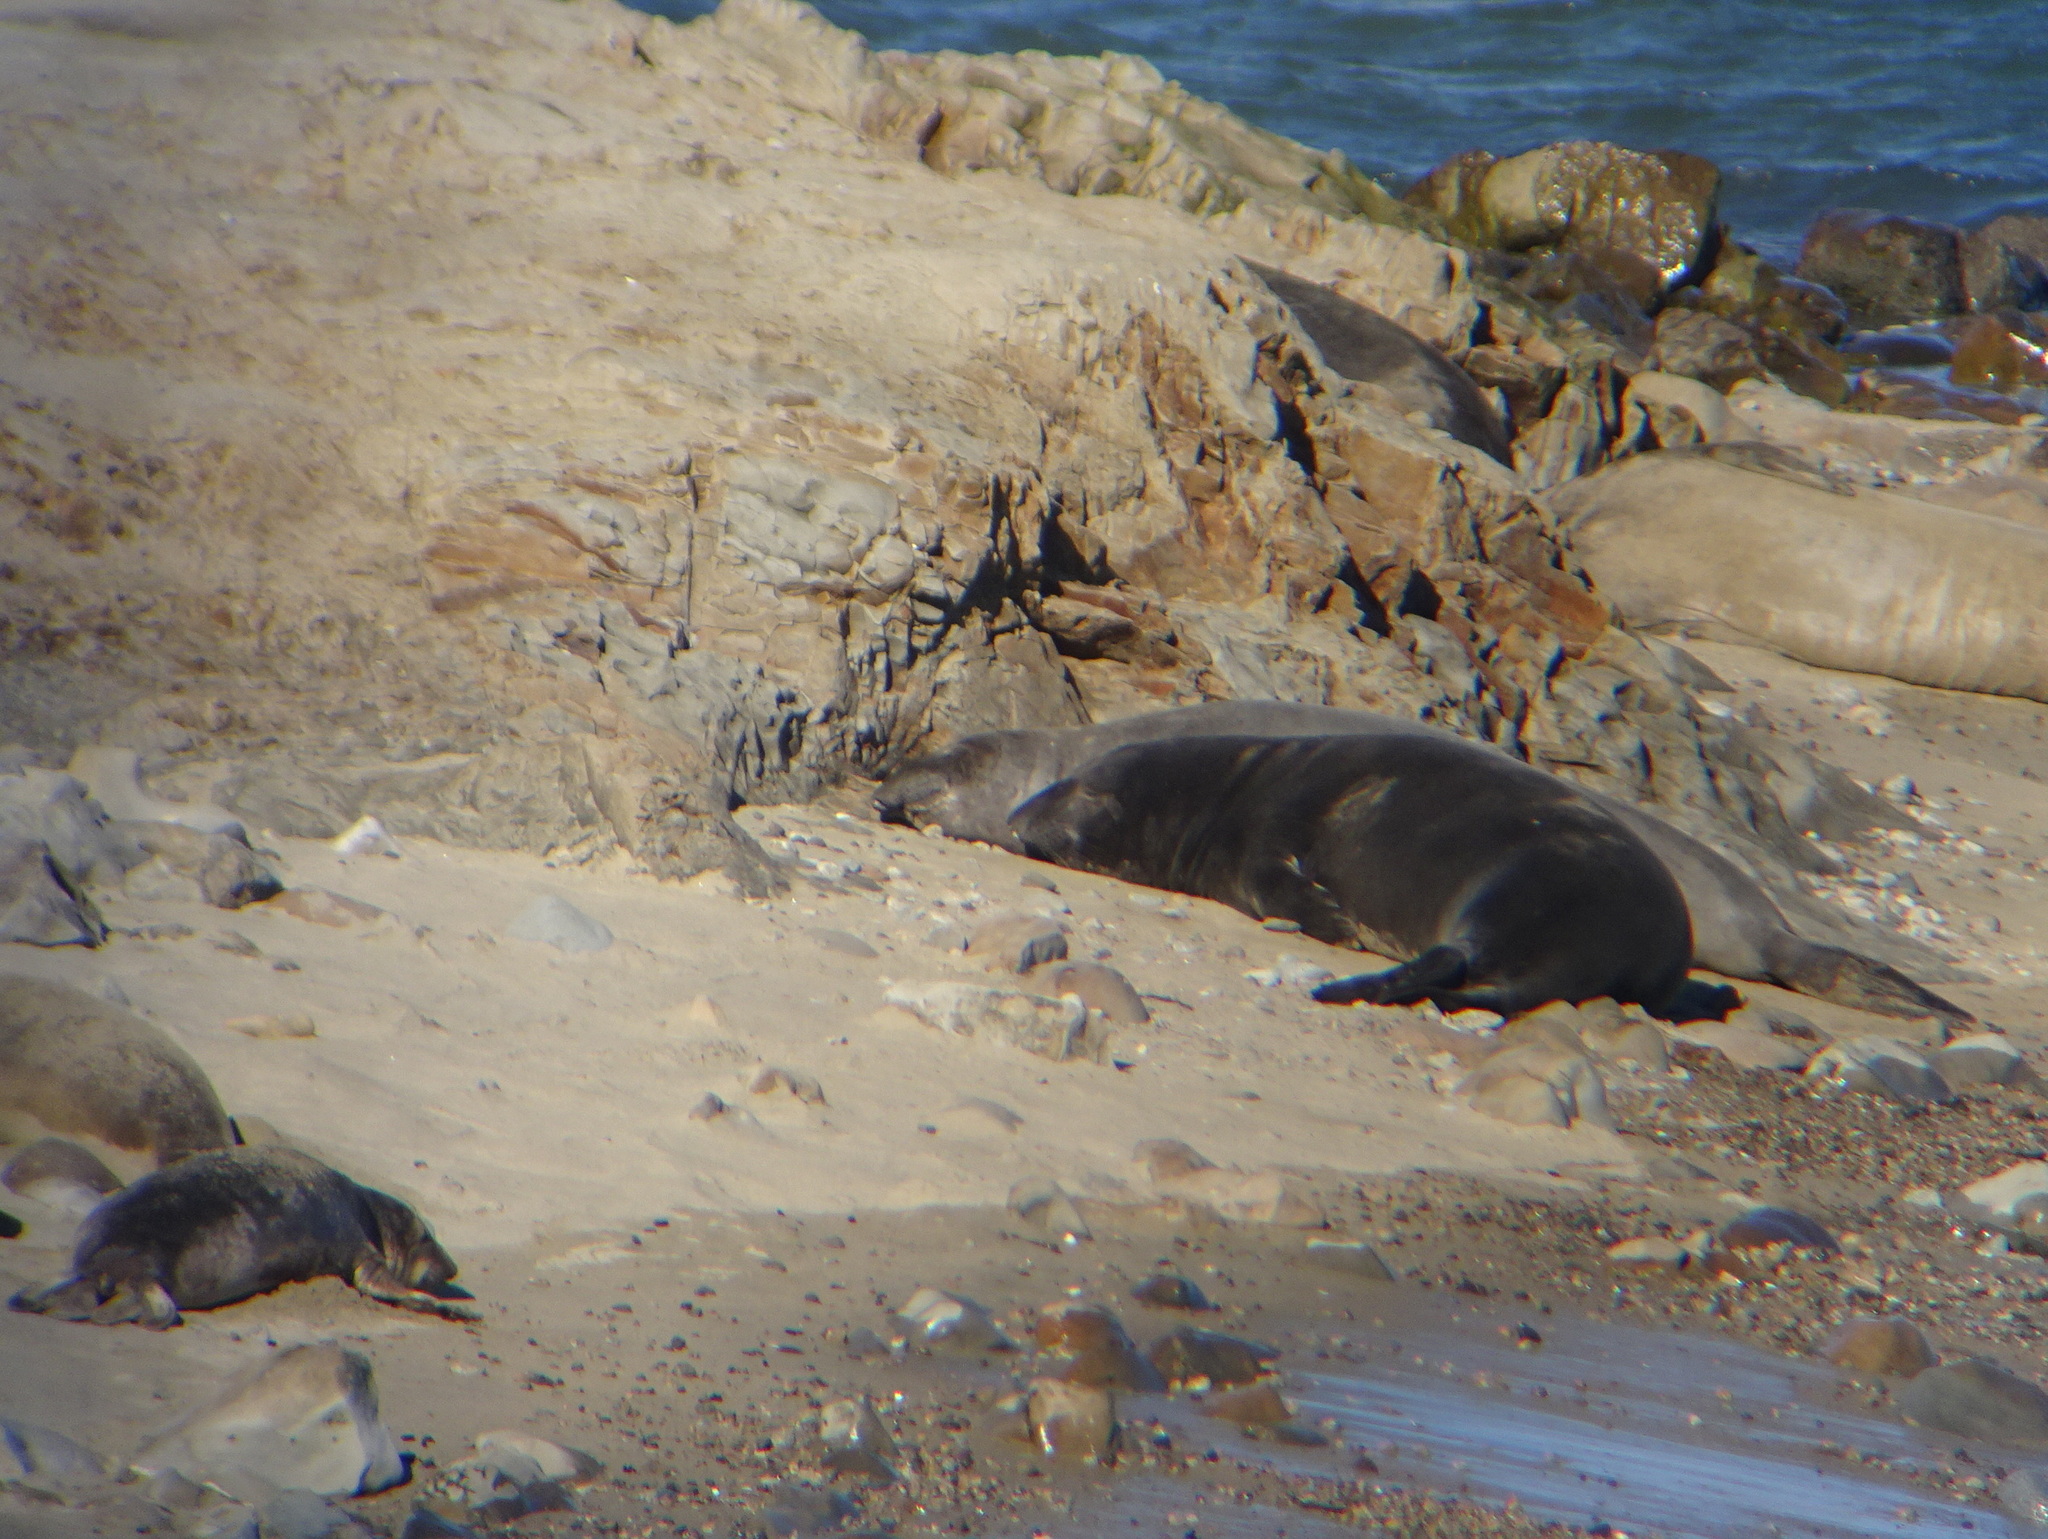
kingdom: Animalia
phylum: Chordata
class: Mammalia
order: Carnivora
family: Phocidae
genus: Mirounga
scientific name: Mirounga angustirostris
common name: Northern elephant seal
